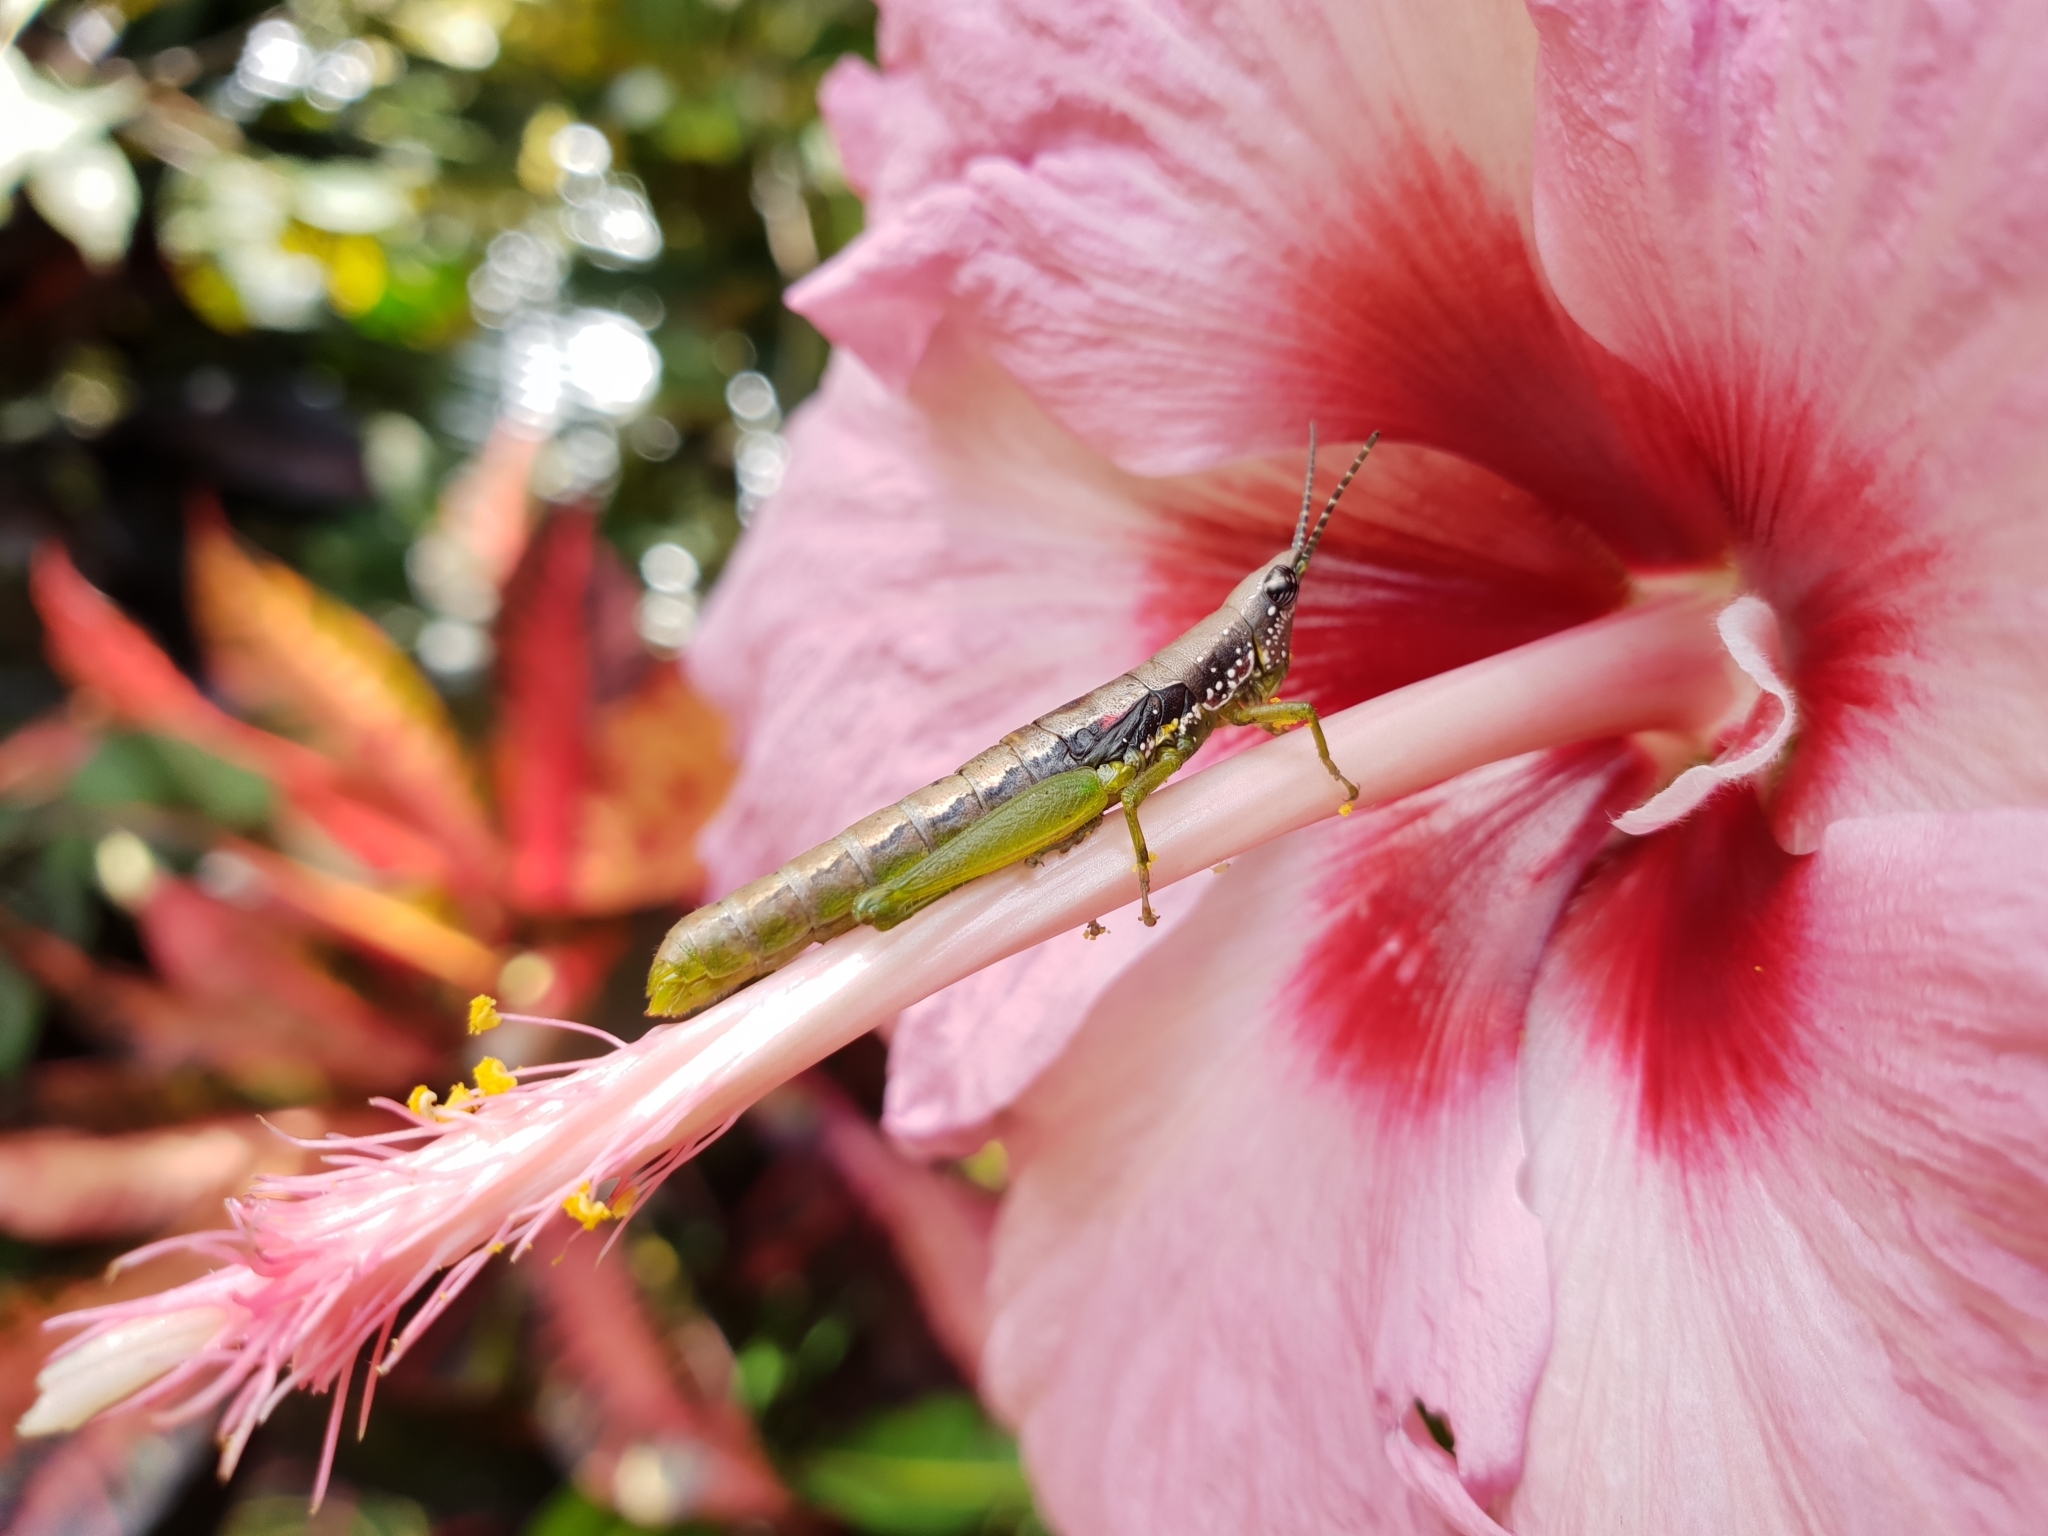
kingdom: Animalia
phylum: Arthropoda
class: Insecta
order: Orthoptera
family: Pyrgomorphidae
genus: Orthacris
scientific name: Orthacris ceylonica
